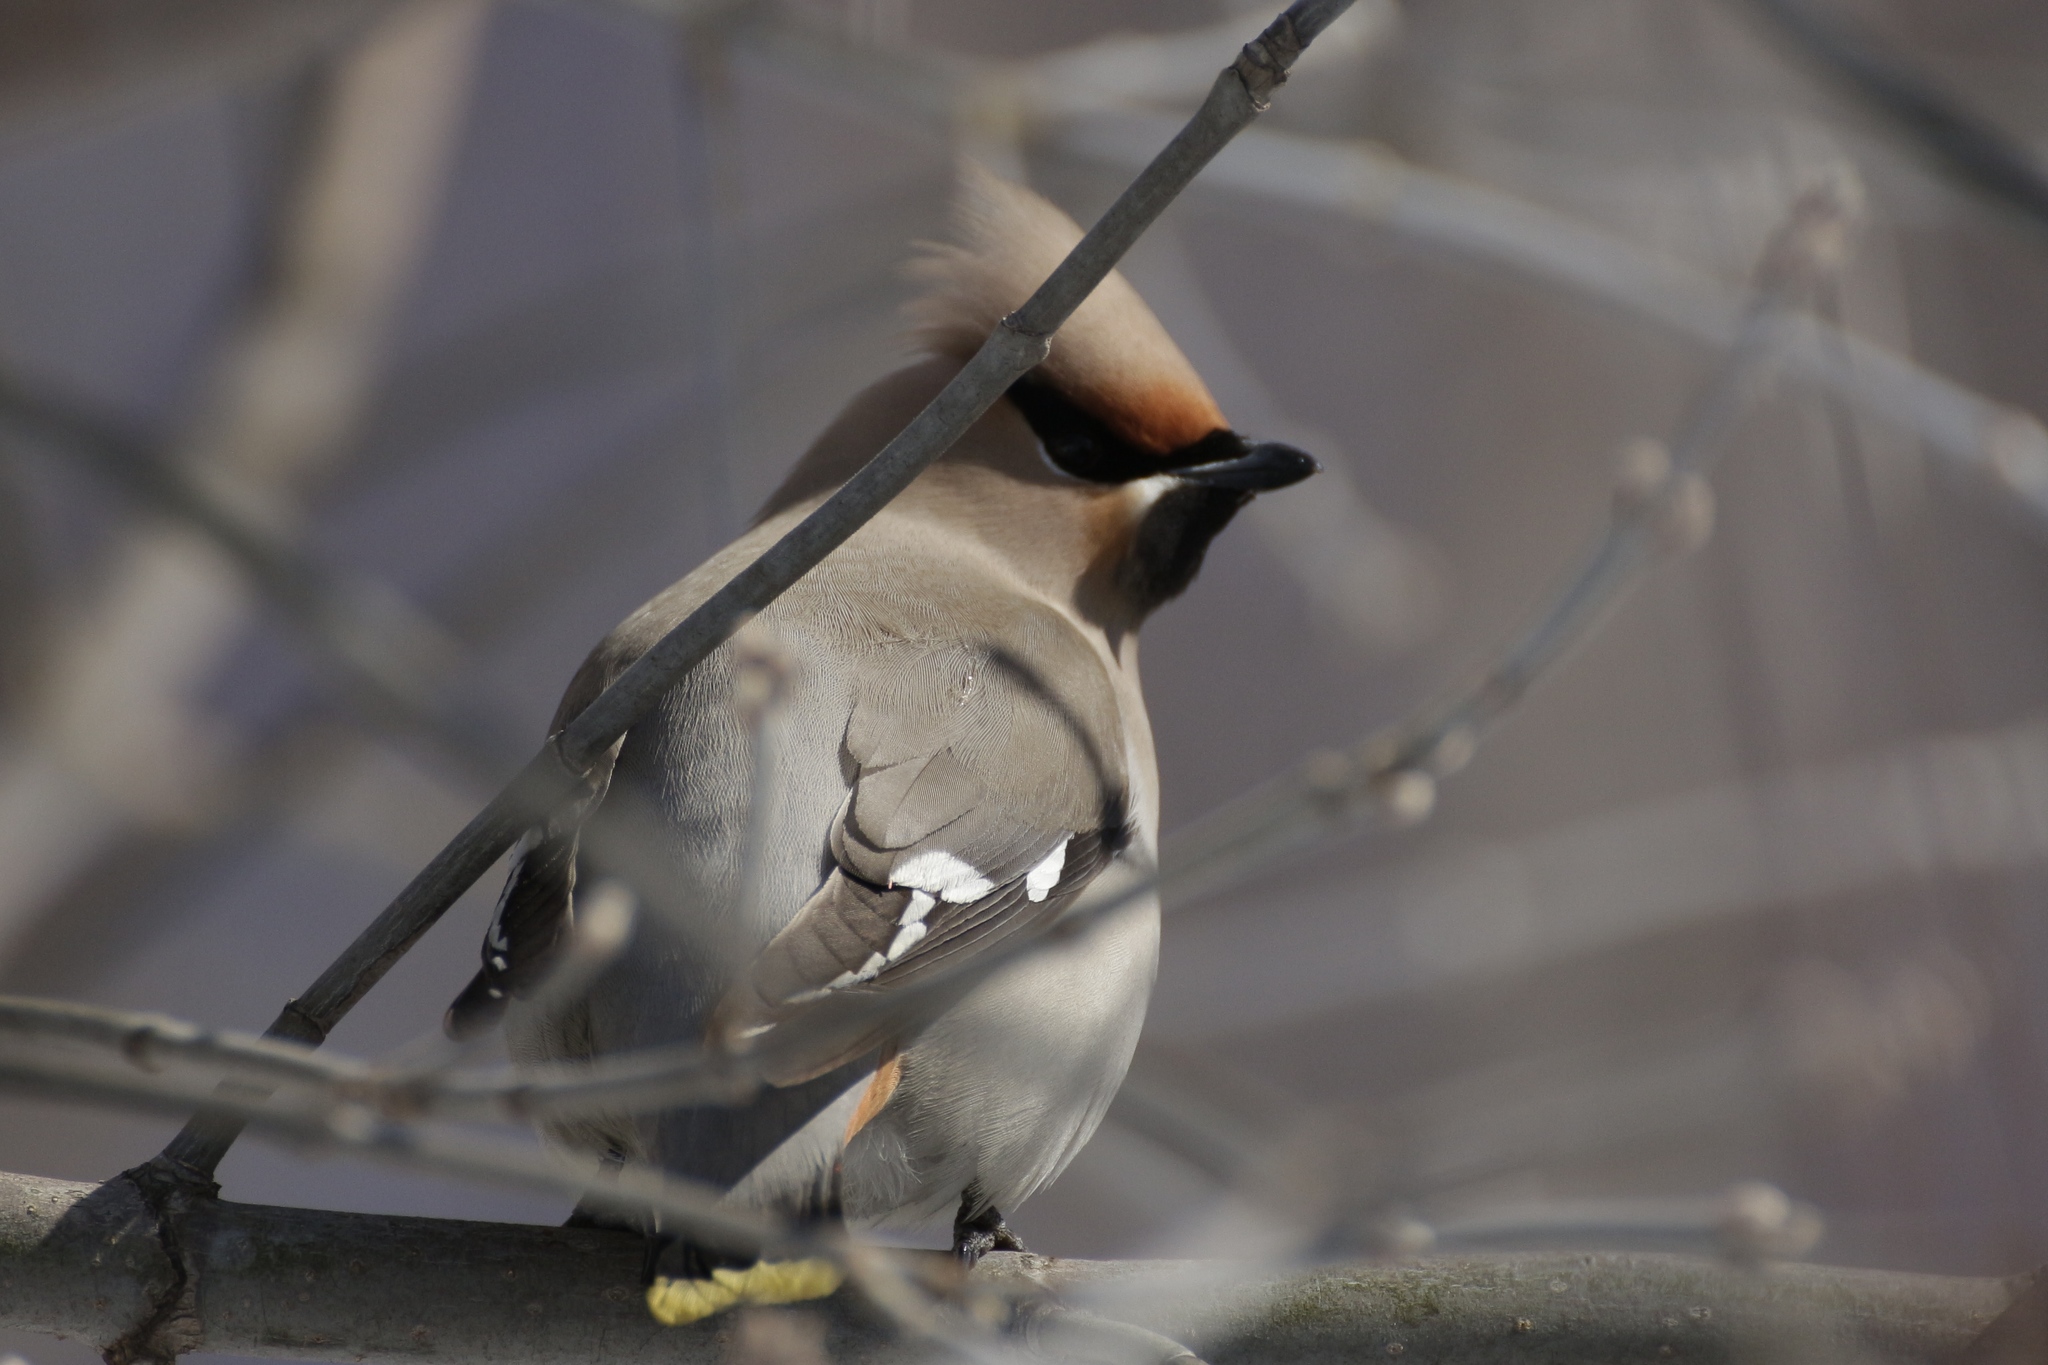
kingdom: Animalia
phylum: Chordata
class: Aves
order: Passeriformes
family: Bombycillidae
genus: Bombycilla
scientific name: Bombycilla garrulus
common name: Bohemian waxwing
